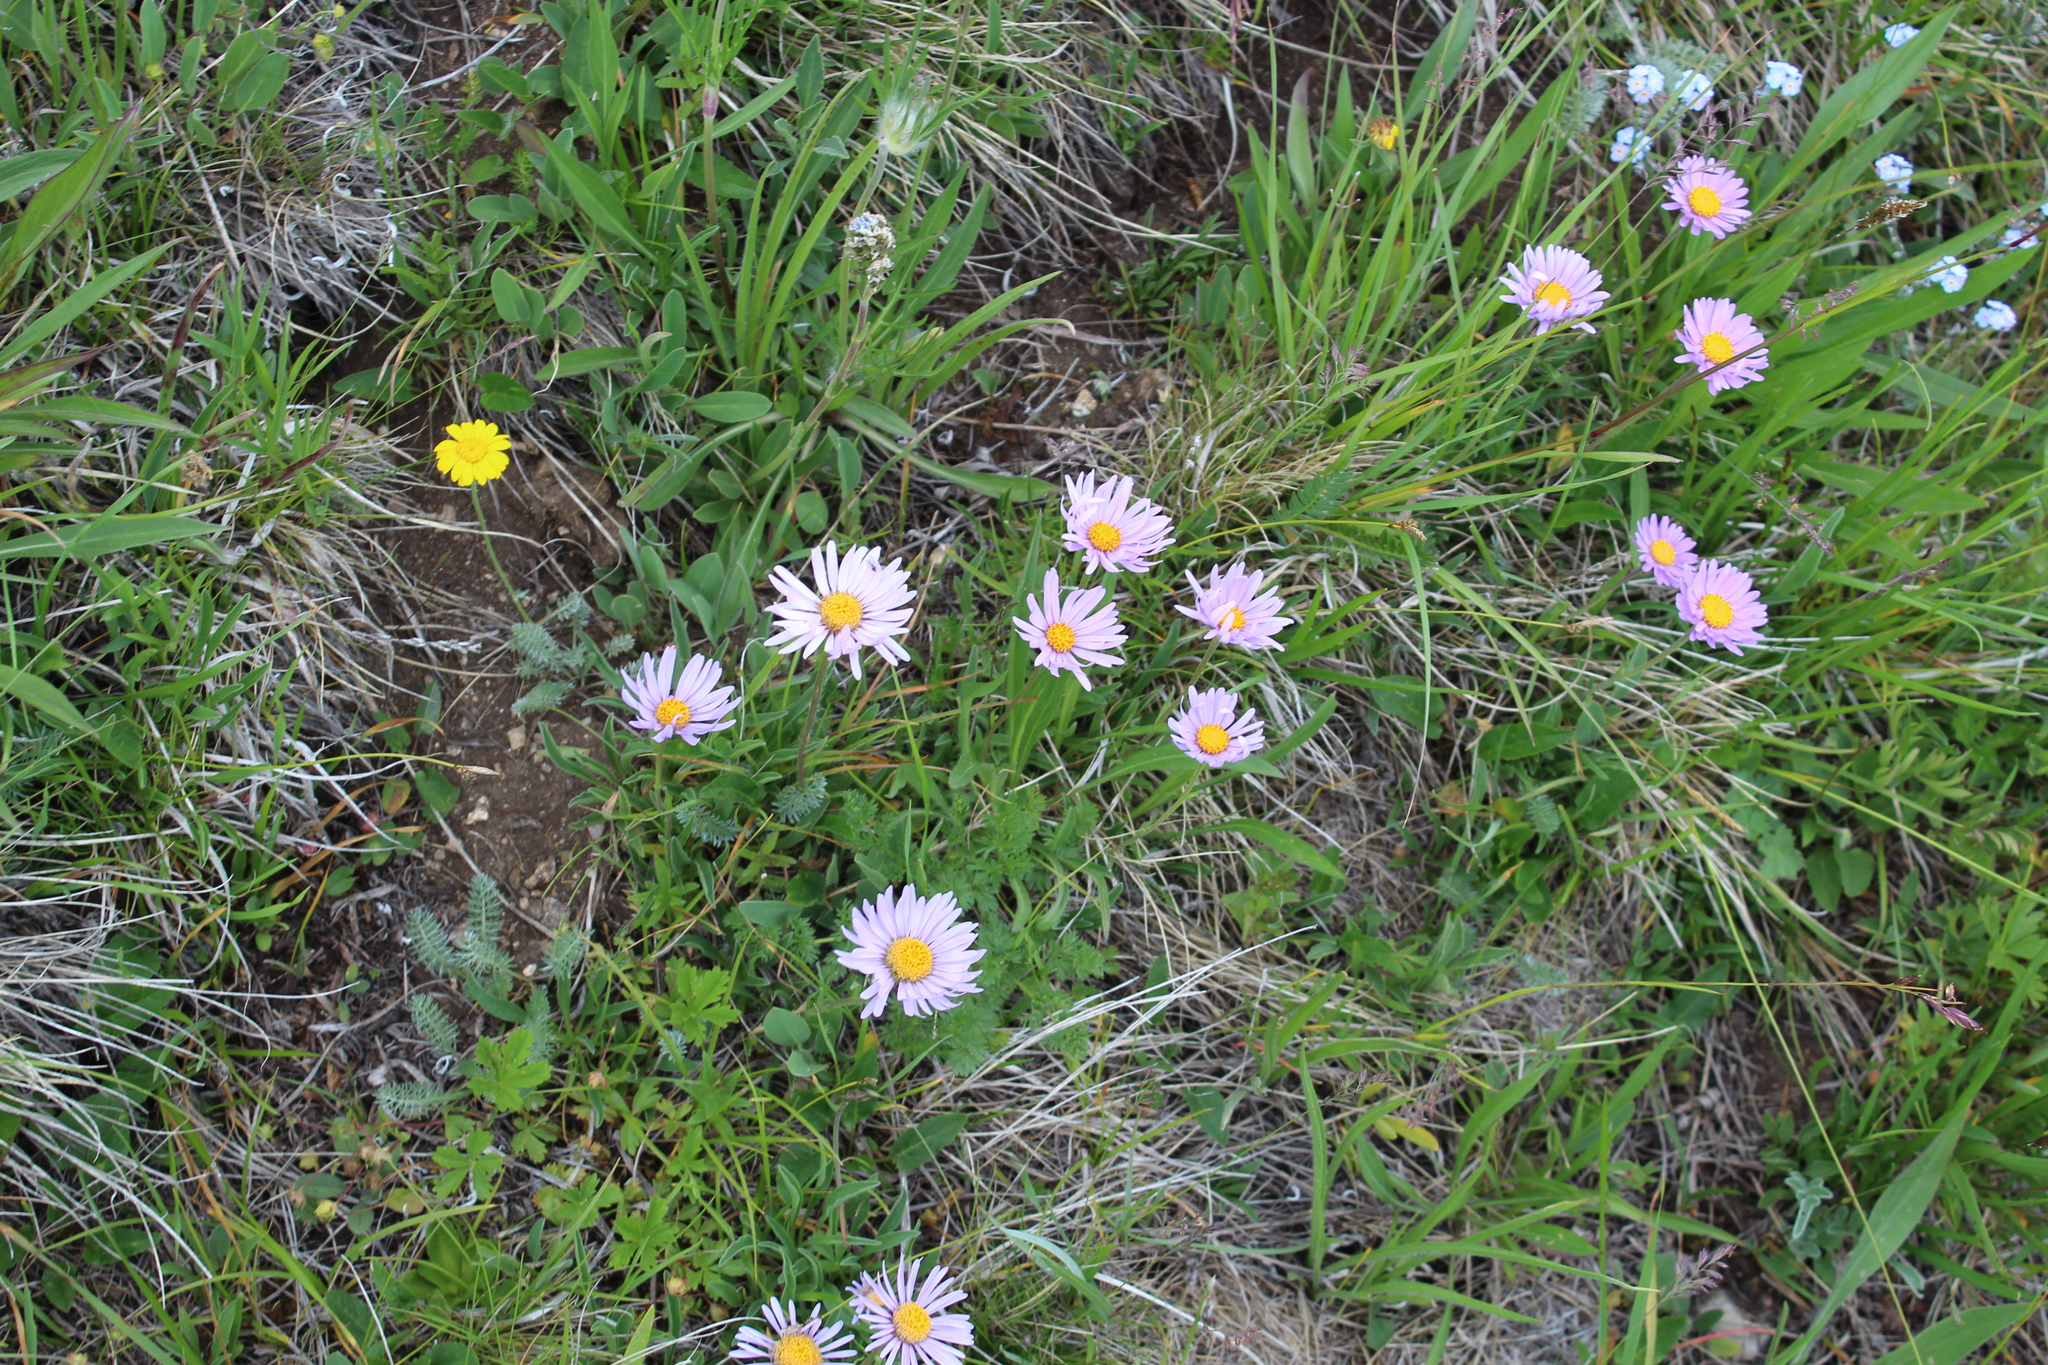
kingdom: Plantae
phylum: Tracheophyta
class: Magnoliopsida
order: Asterales
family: Asteraceae
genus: Aster
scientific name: Aster alpinus
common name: Alpine aster
